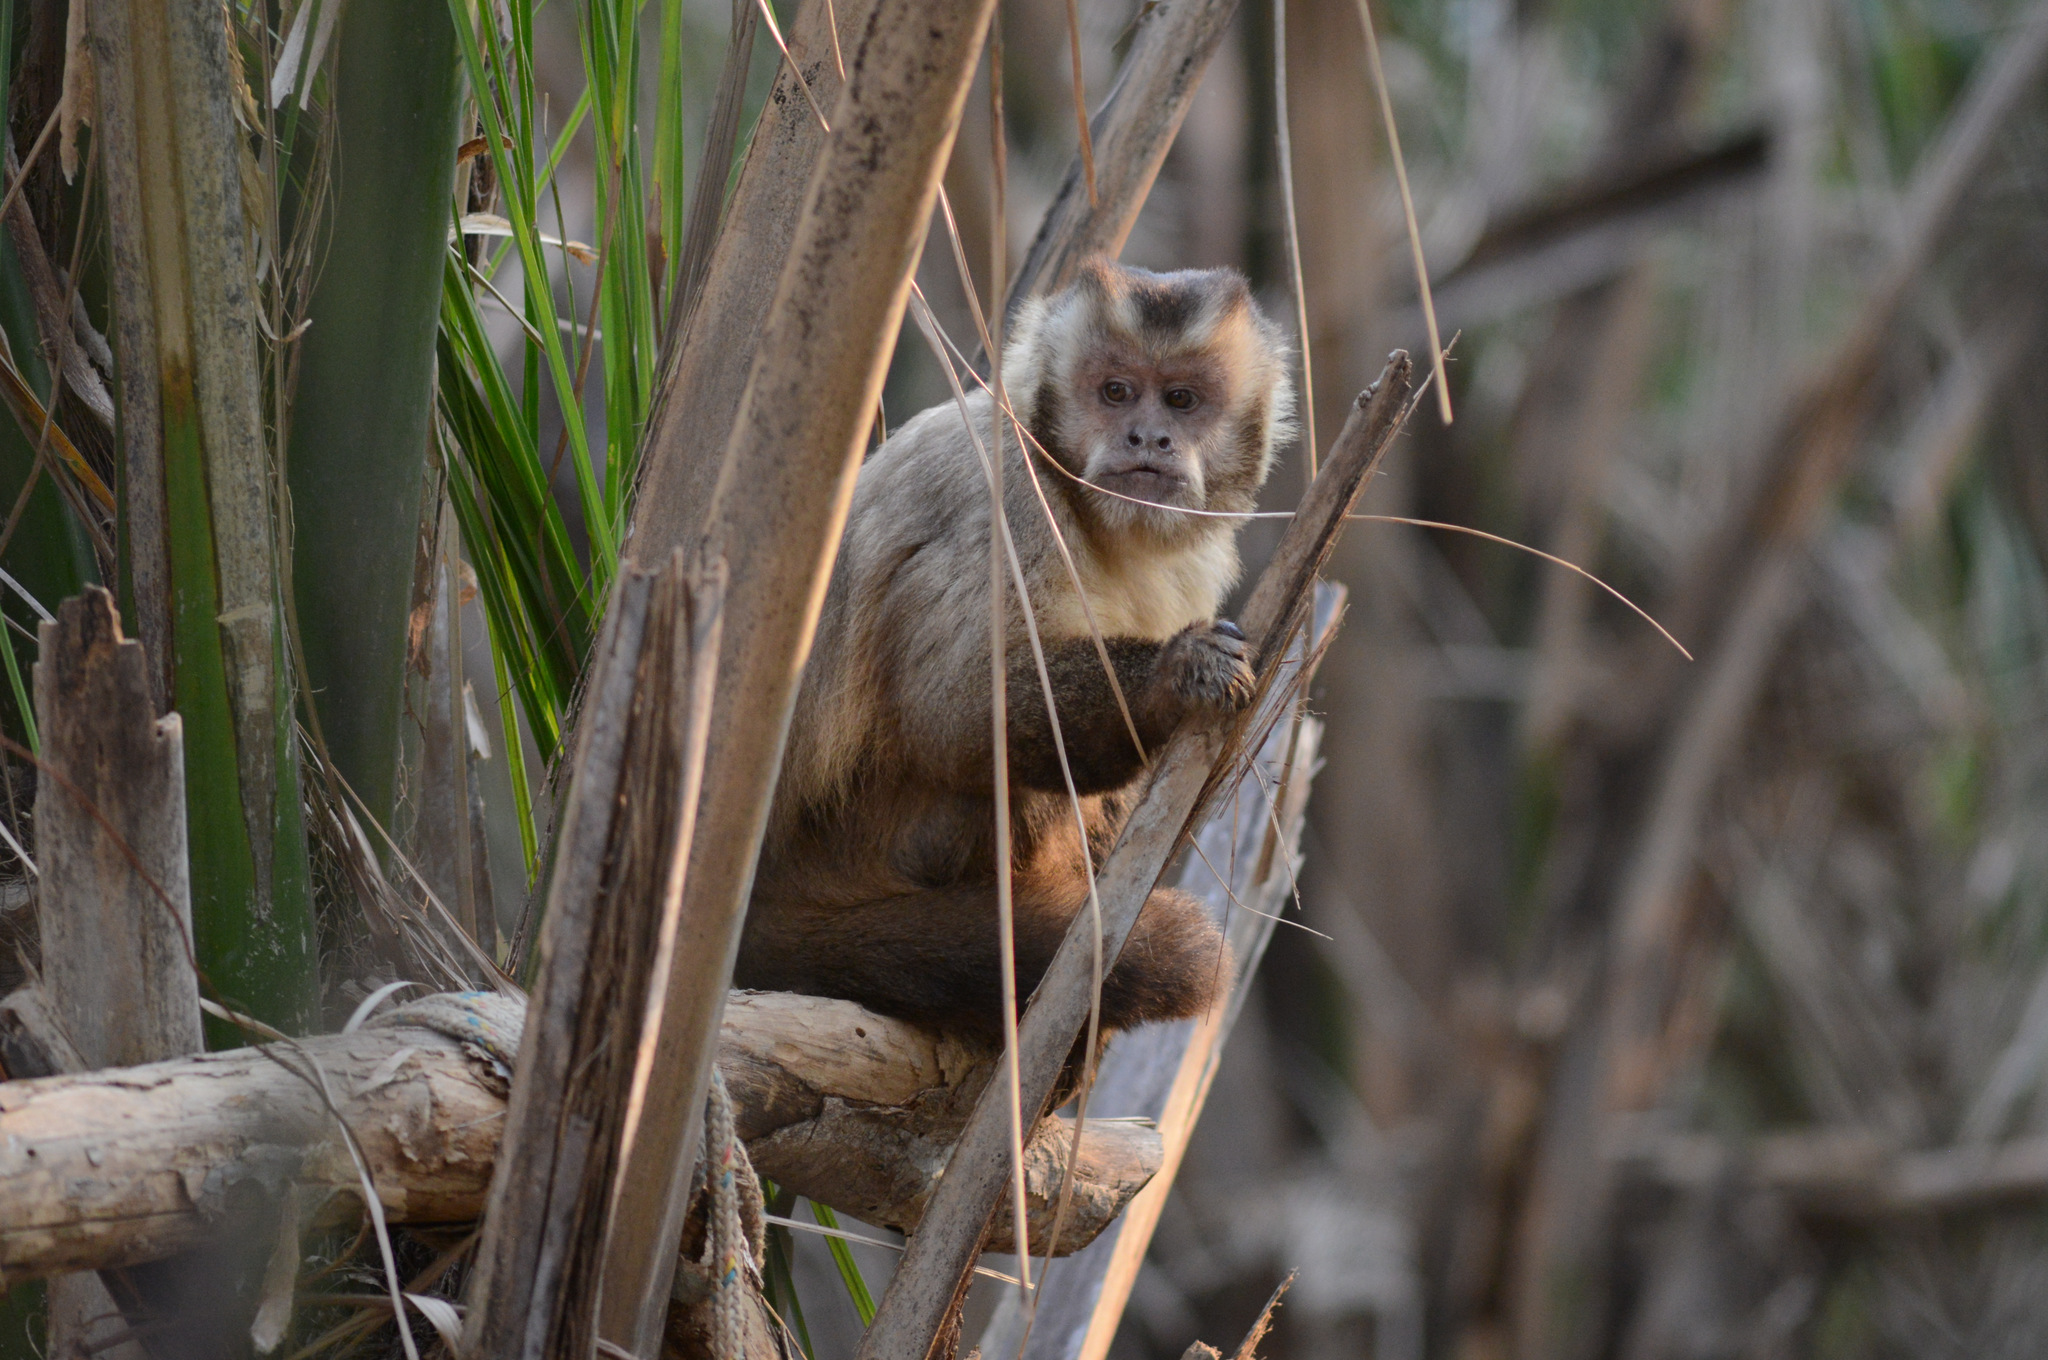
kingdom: Animalia
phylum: Chordata
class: Mammalia
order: Primates
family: Cebidae
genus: Sapajus
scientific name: Sapajus libidinosus
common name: Bearded capuchin
